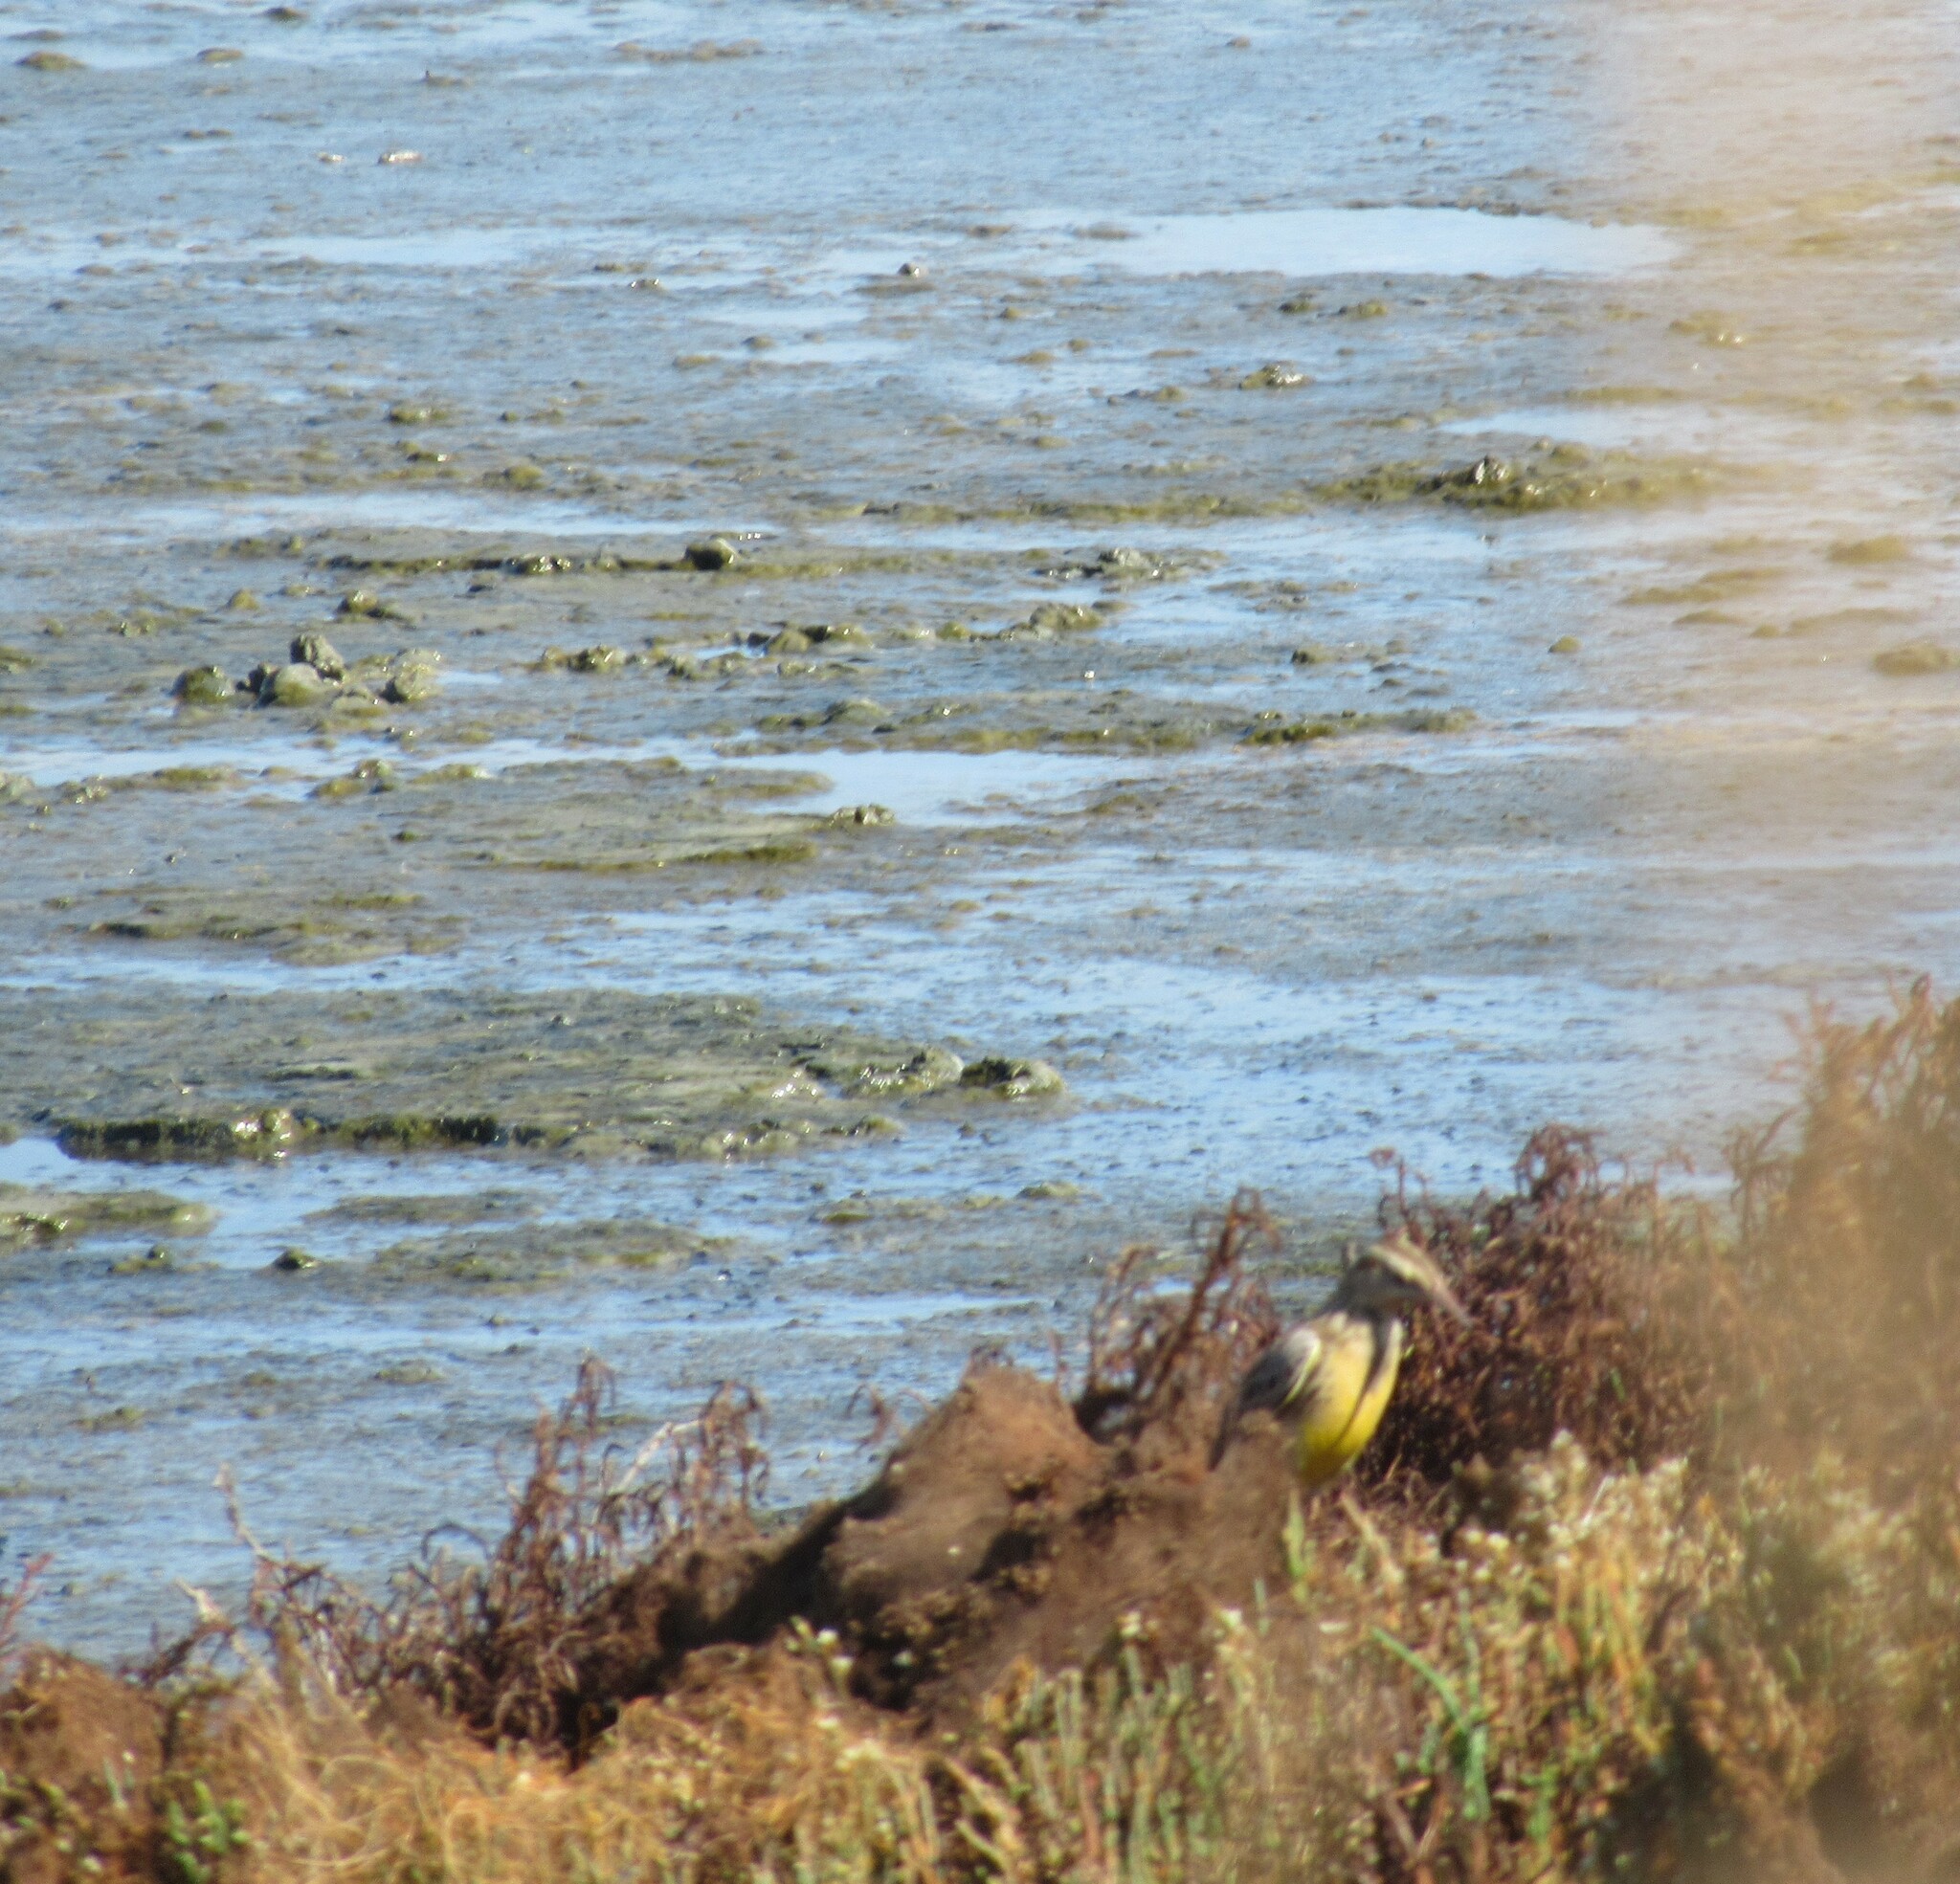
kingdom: Animalia
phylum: Chordata
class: Aves
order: Passeriformes
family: Icteridae
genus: Sturnella
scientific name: Sturnella neglecta
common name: Western meadowlark
